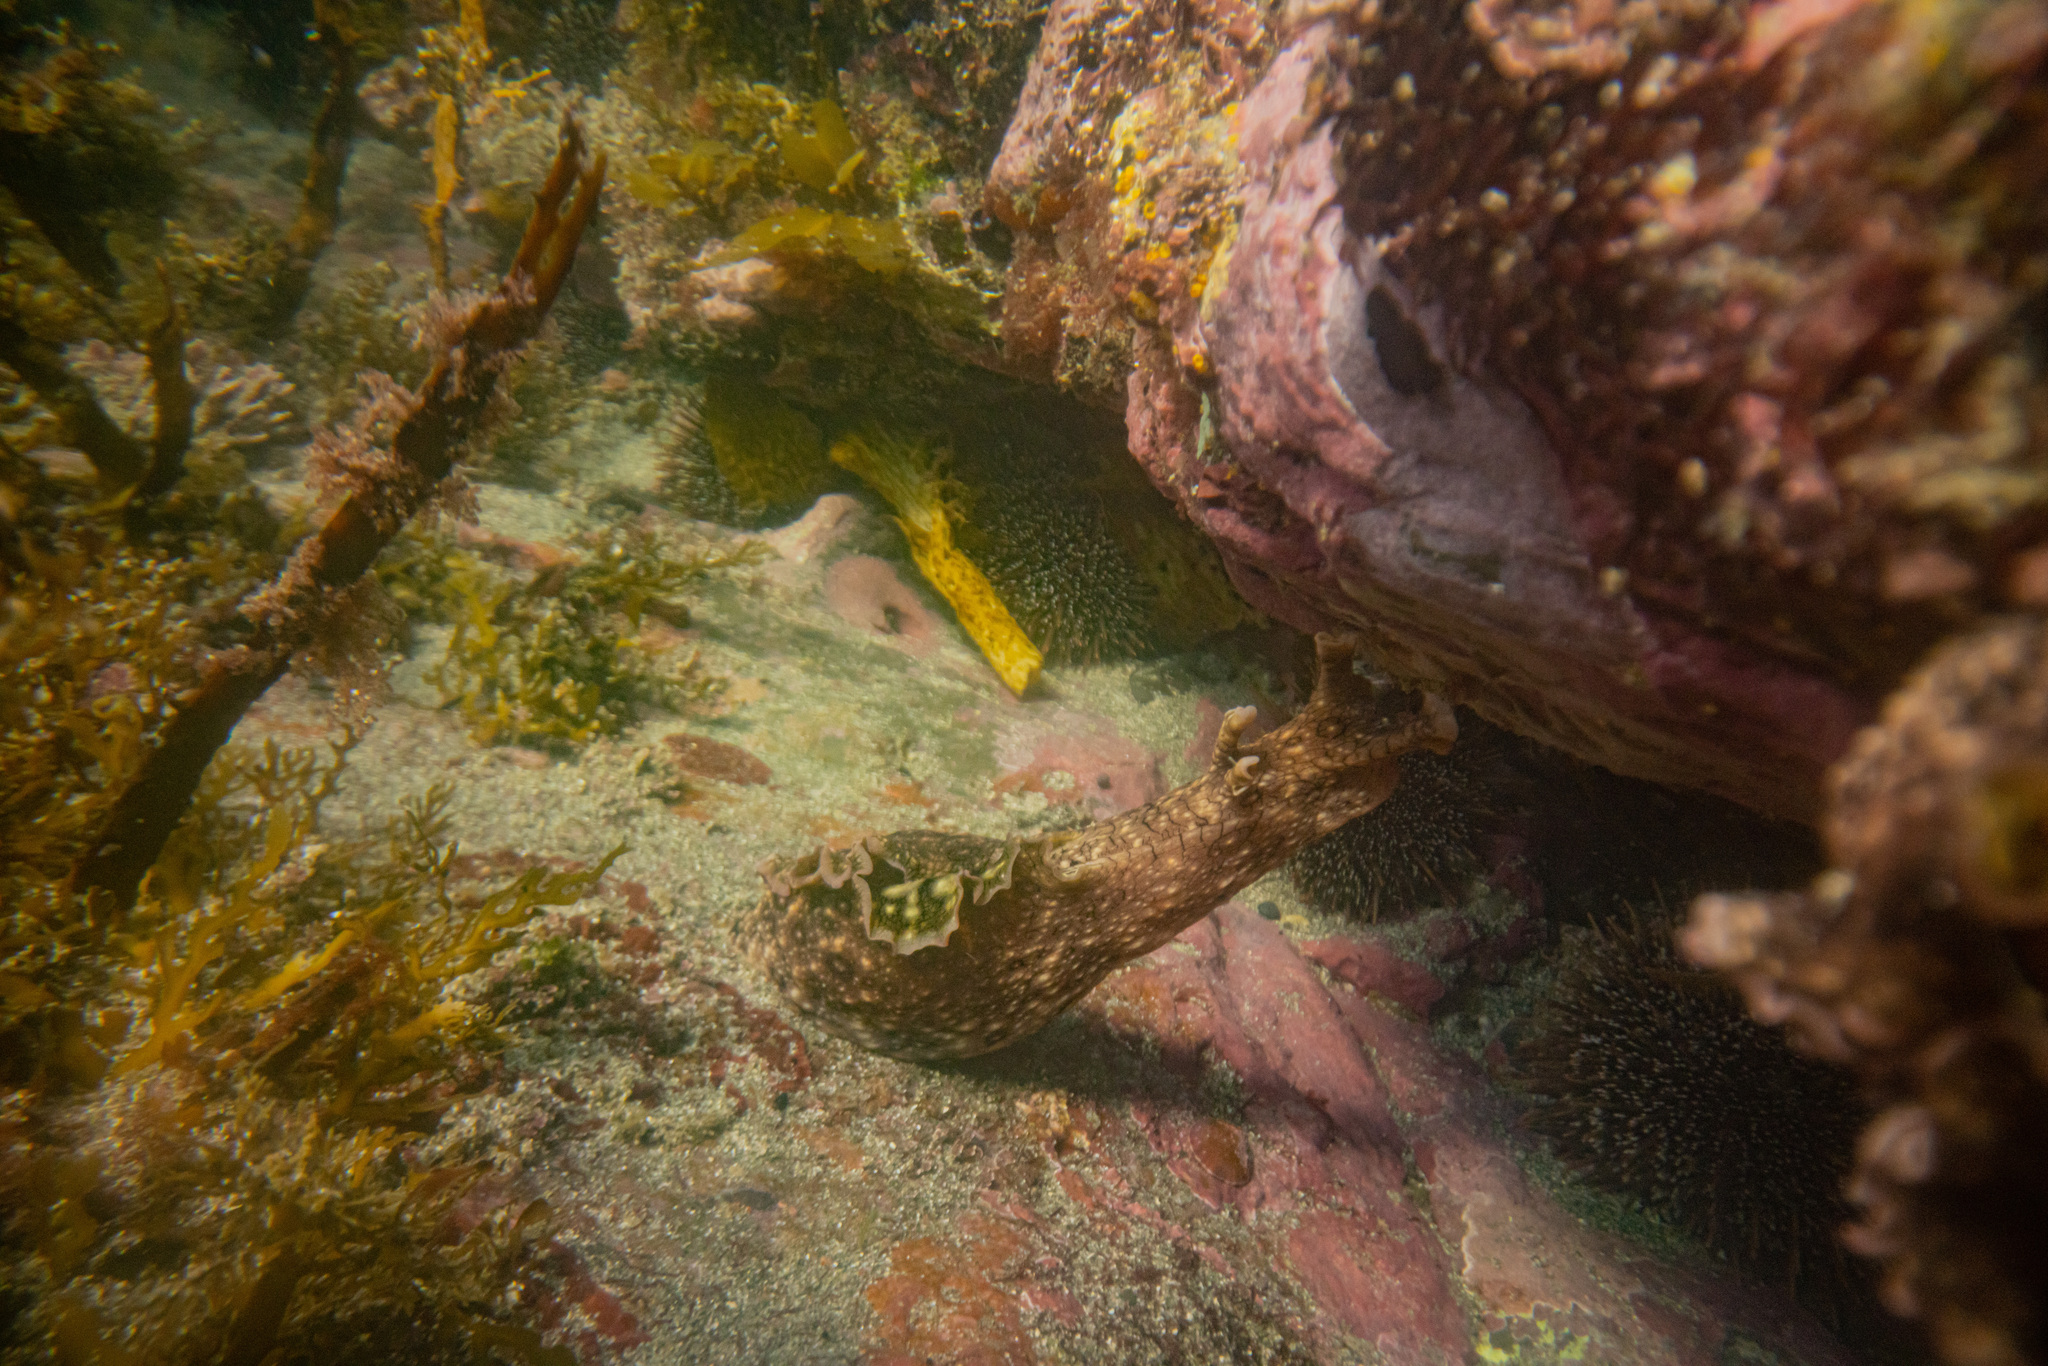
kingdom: Animalia
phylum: Mollusca
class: Gastropoda
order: Aplysiida
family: Aplysiidae
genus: Aplysia
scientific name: Aplysia argus
